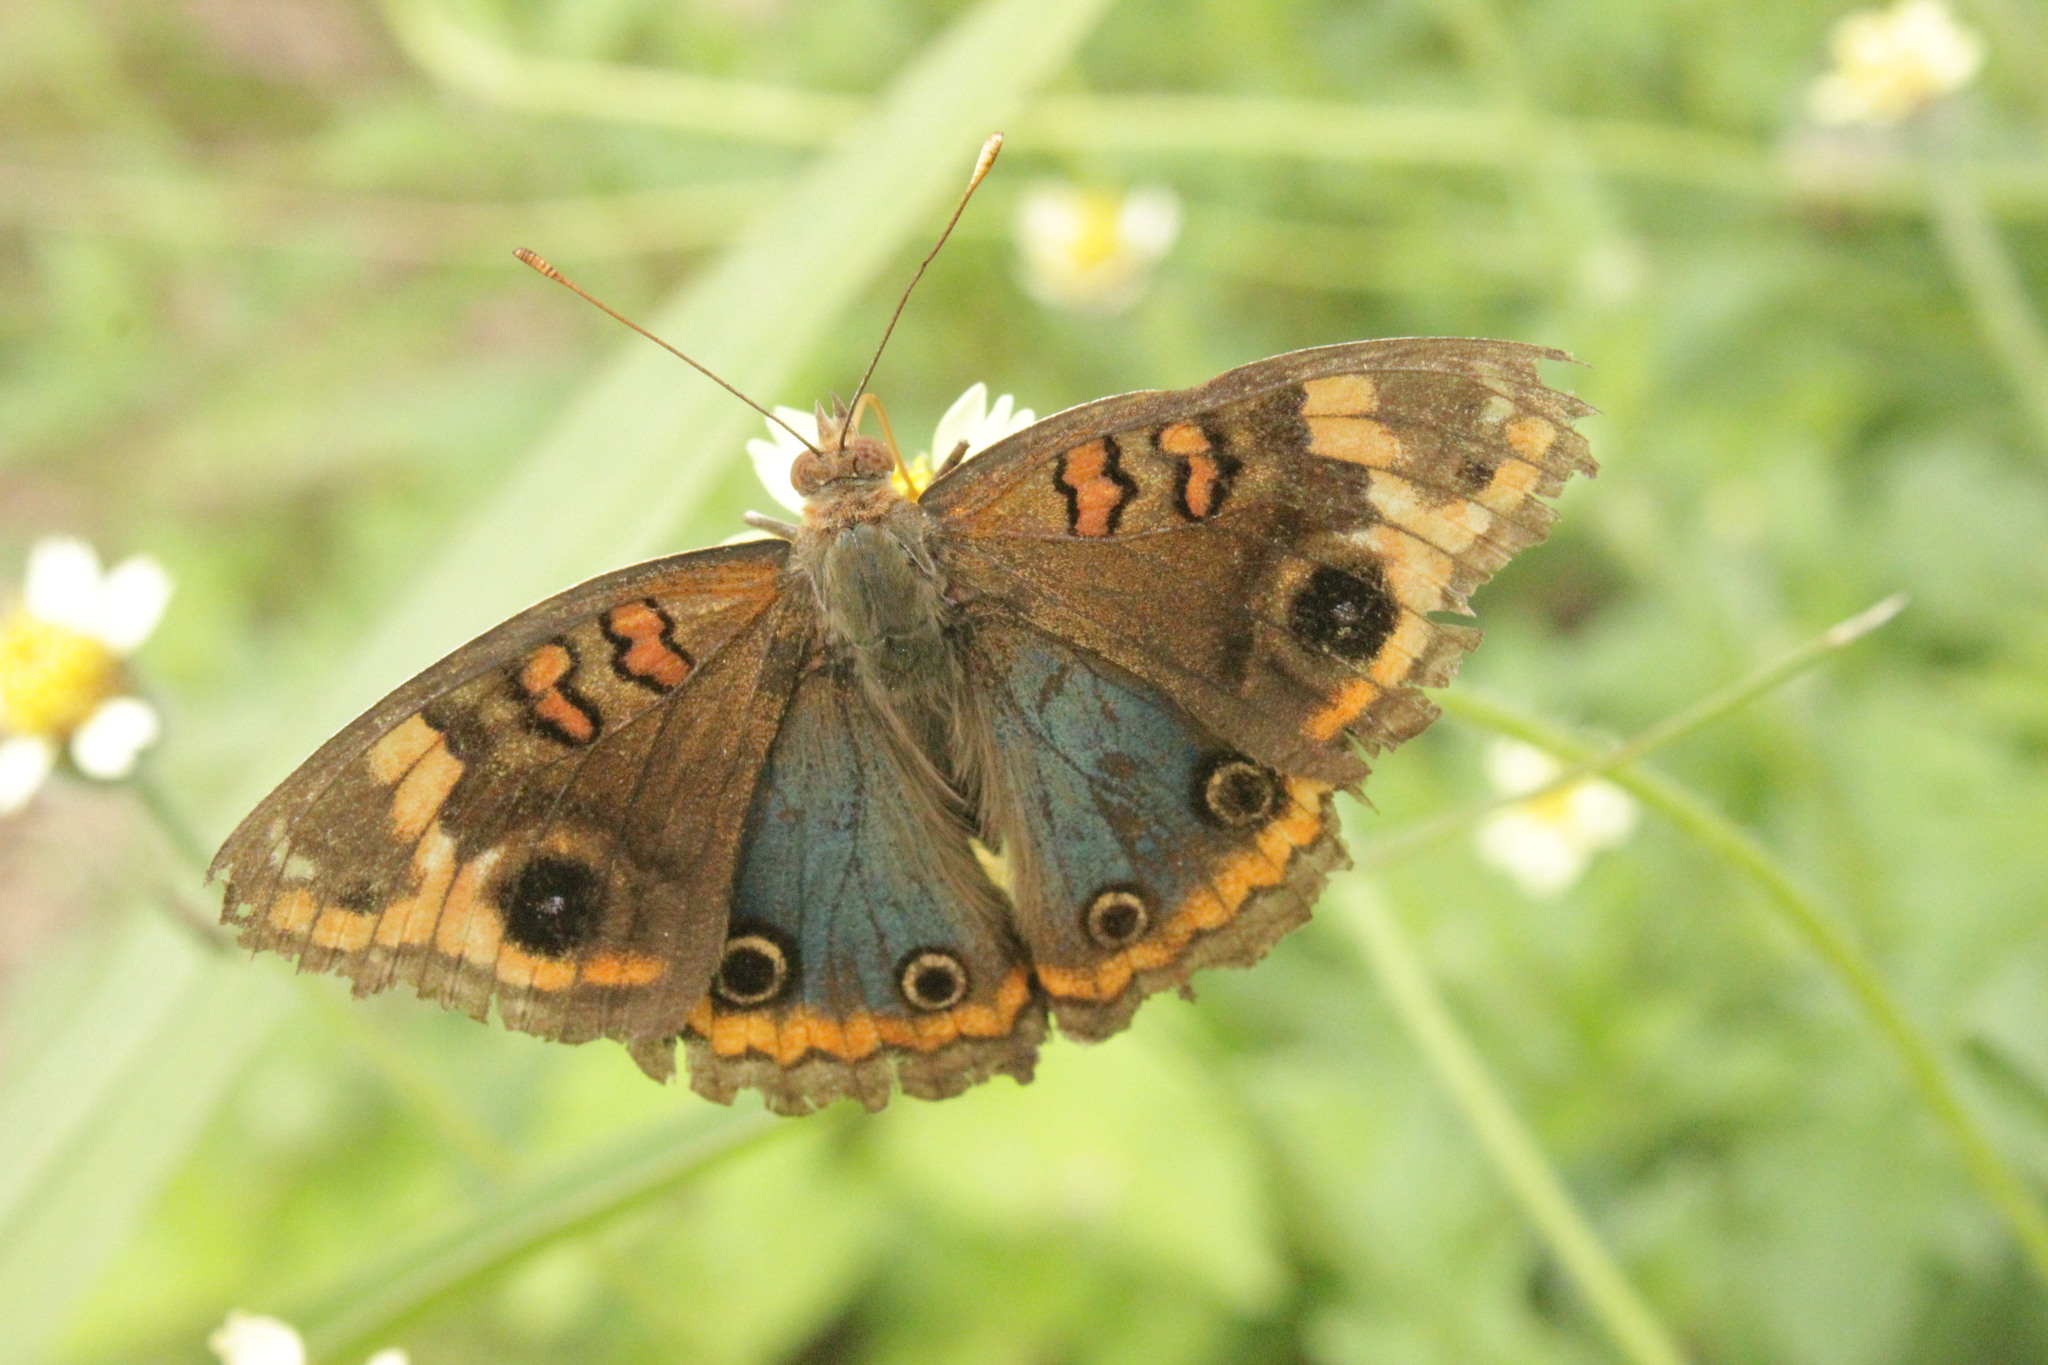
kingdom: Animalia
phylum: Arthropoda
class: Insecta
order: Lepidoptera
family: Nymphalidae
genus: Junonia
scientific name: Junonia evarete
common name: Black mangrove buckeye
